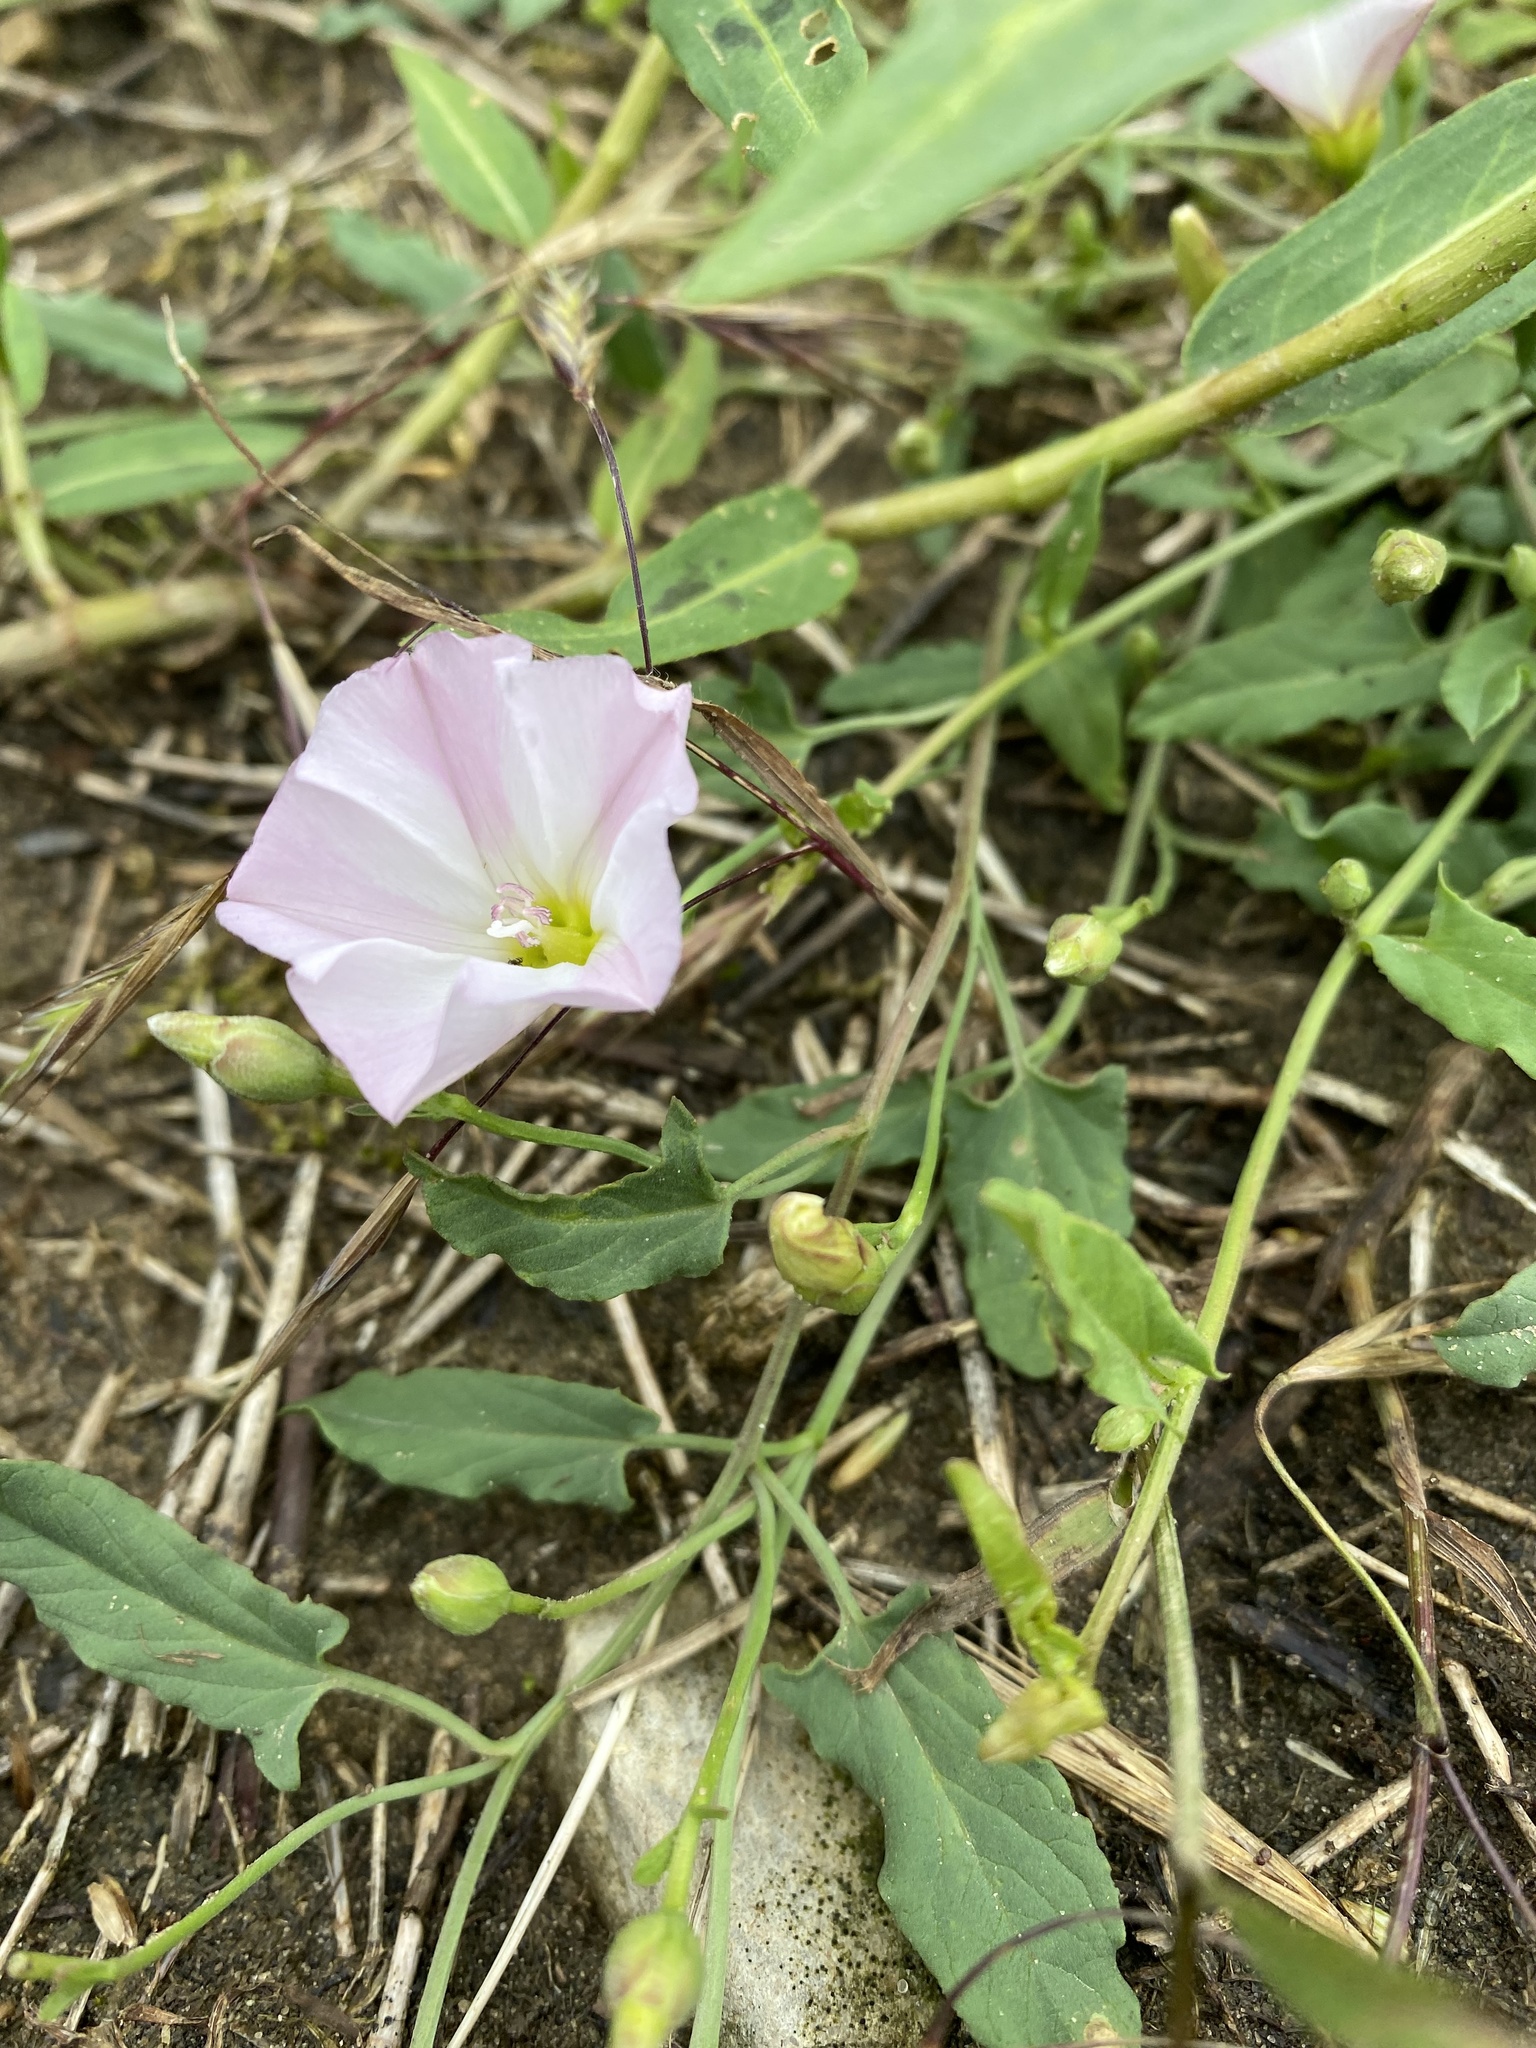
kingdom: Plantae
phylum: Tracheophyta
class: Magnoliopsida
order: Solanales
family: Convolvulaceae
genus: Convolvulus
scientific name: Convolvulus arvensis
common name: Field bindweed
